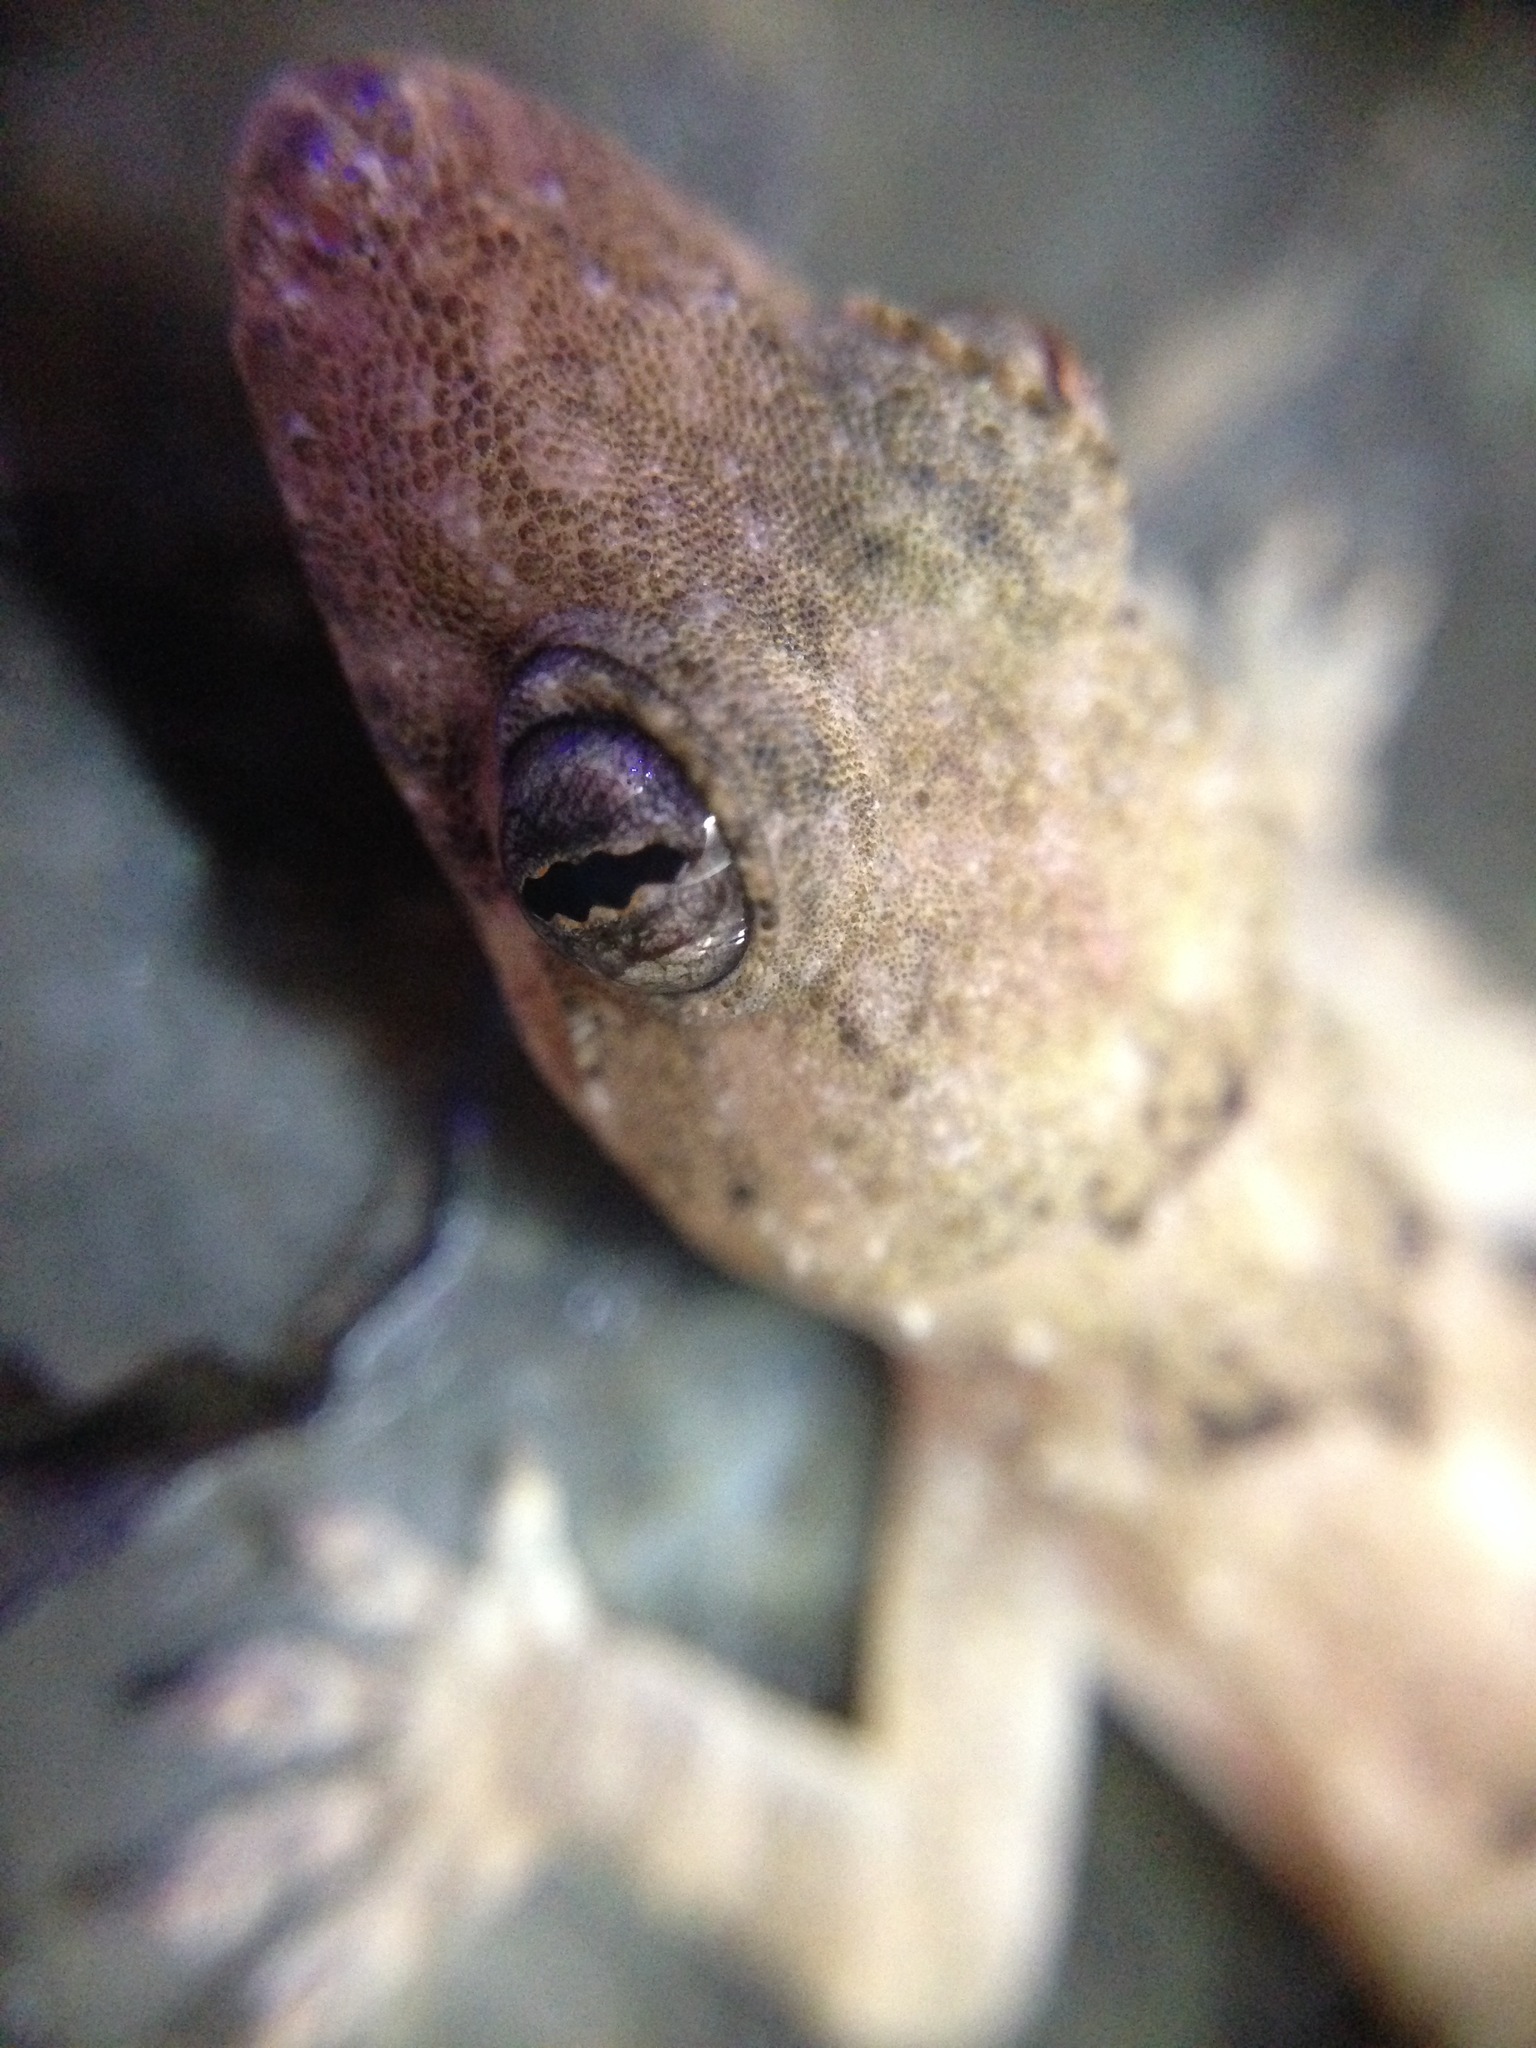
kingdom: Animalia
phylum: Chordata
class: Squamata
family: Gekkonidae
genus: Hemidactylus
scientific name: Hemidactylus mabouia
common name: House gecko
